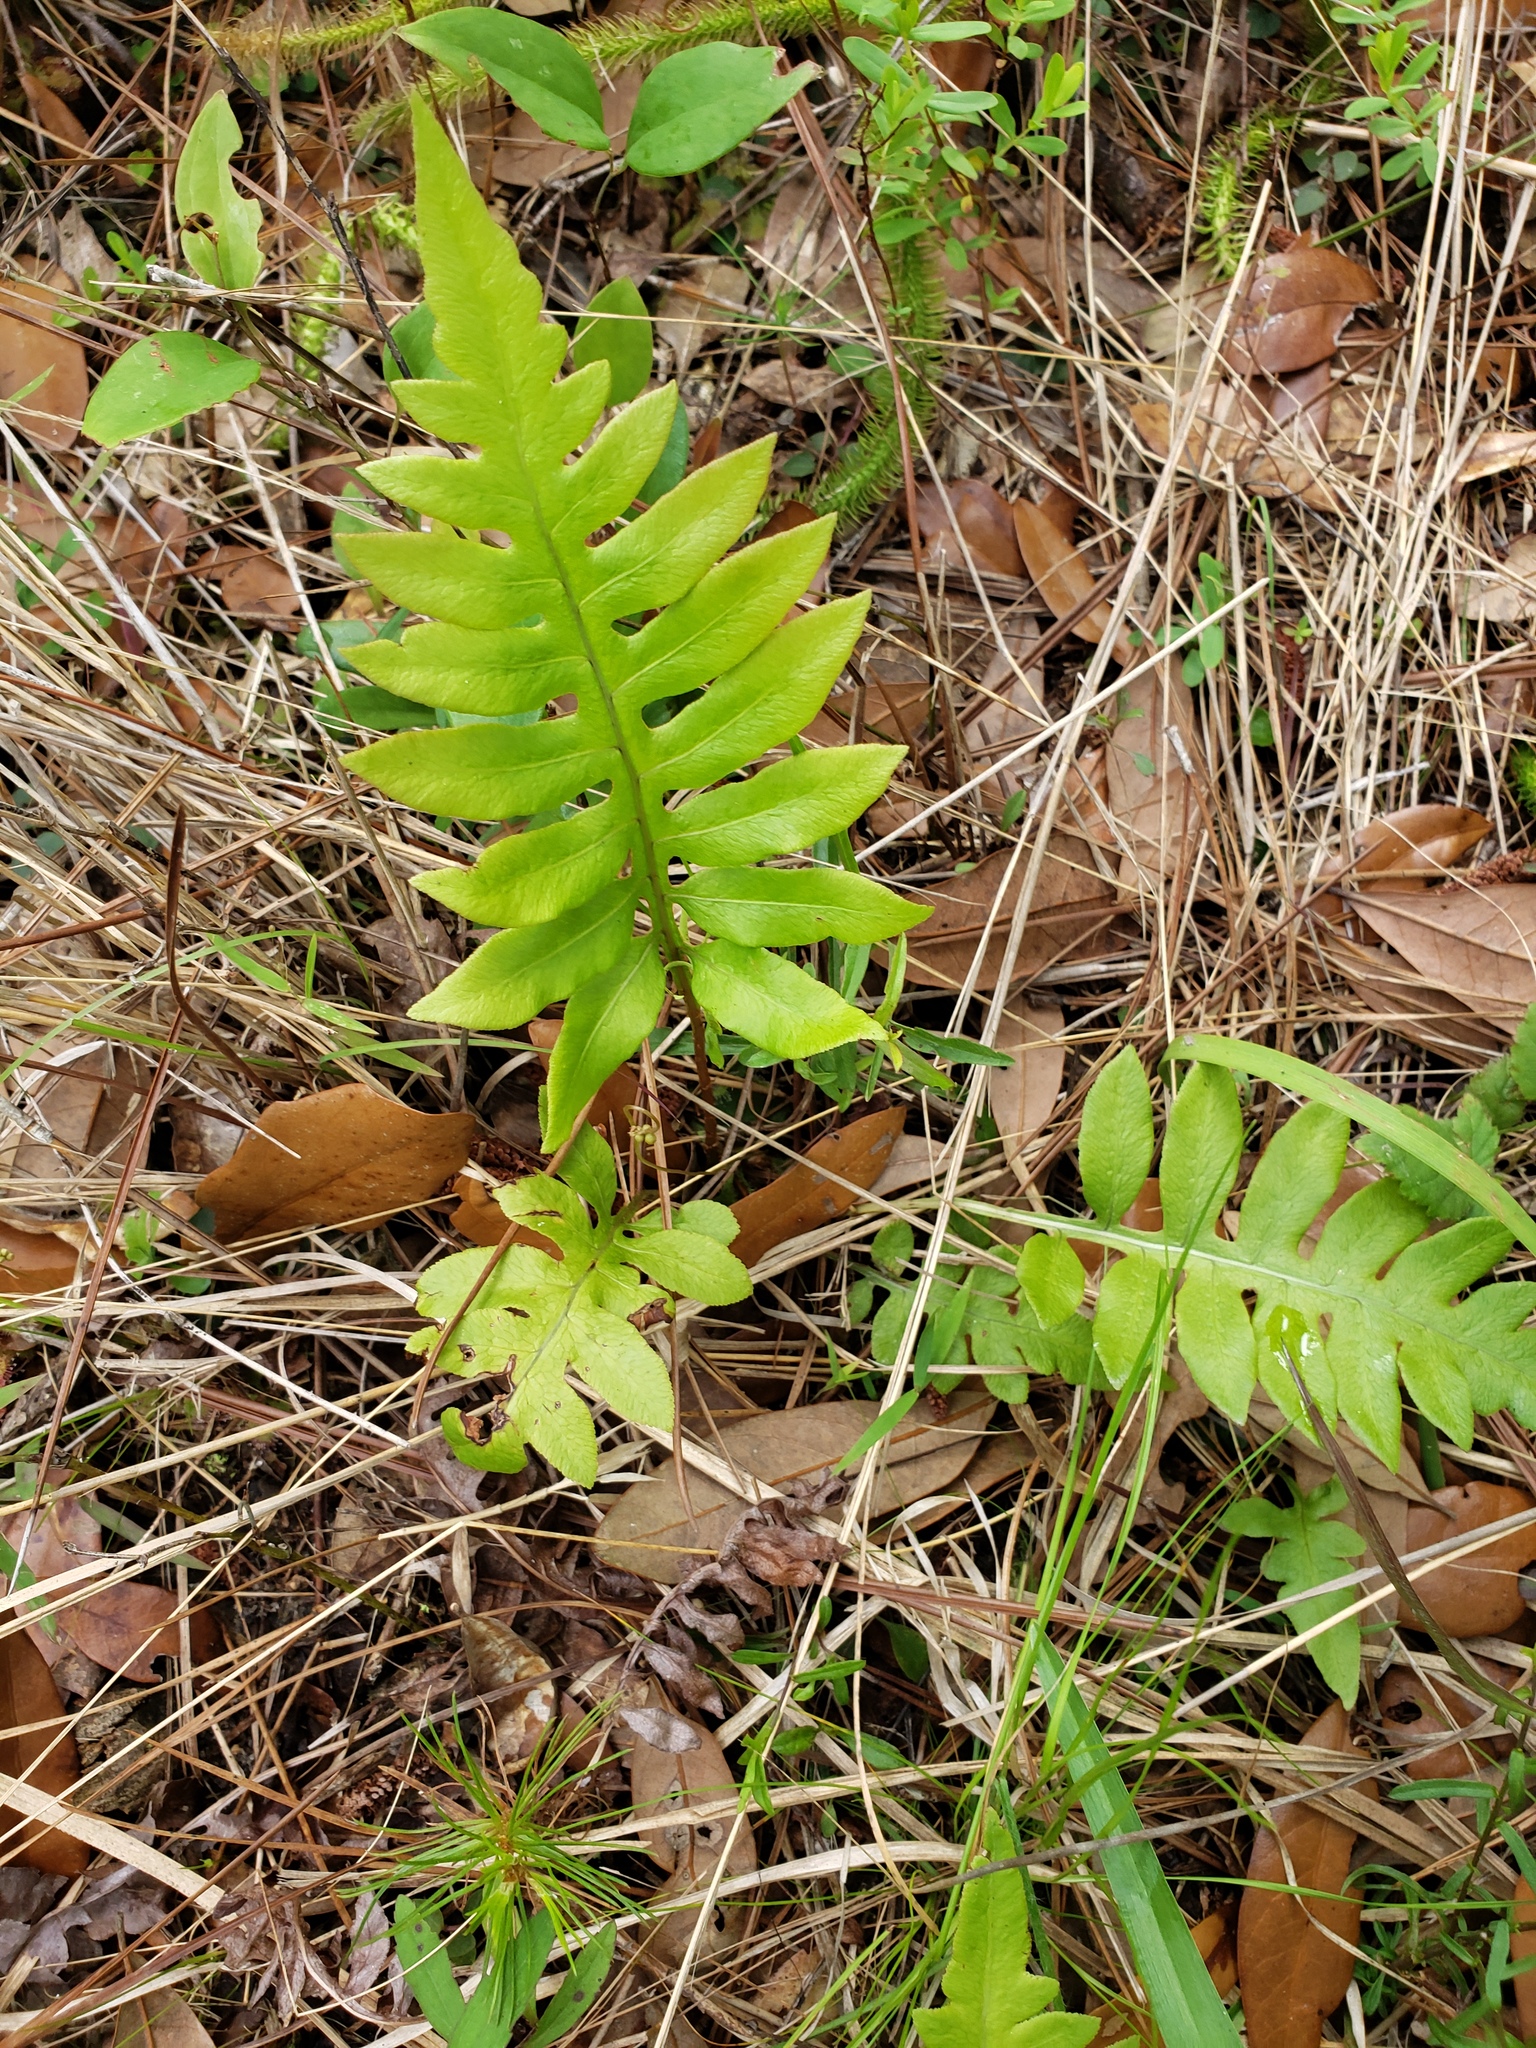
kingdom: Plantae
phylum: Tracheophyta
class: Polypodiopsida
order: Polypodiales
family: Blechnaceae
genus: Lorinseria
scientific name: Lorinseria areolata
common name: Dwarf chain fern
